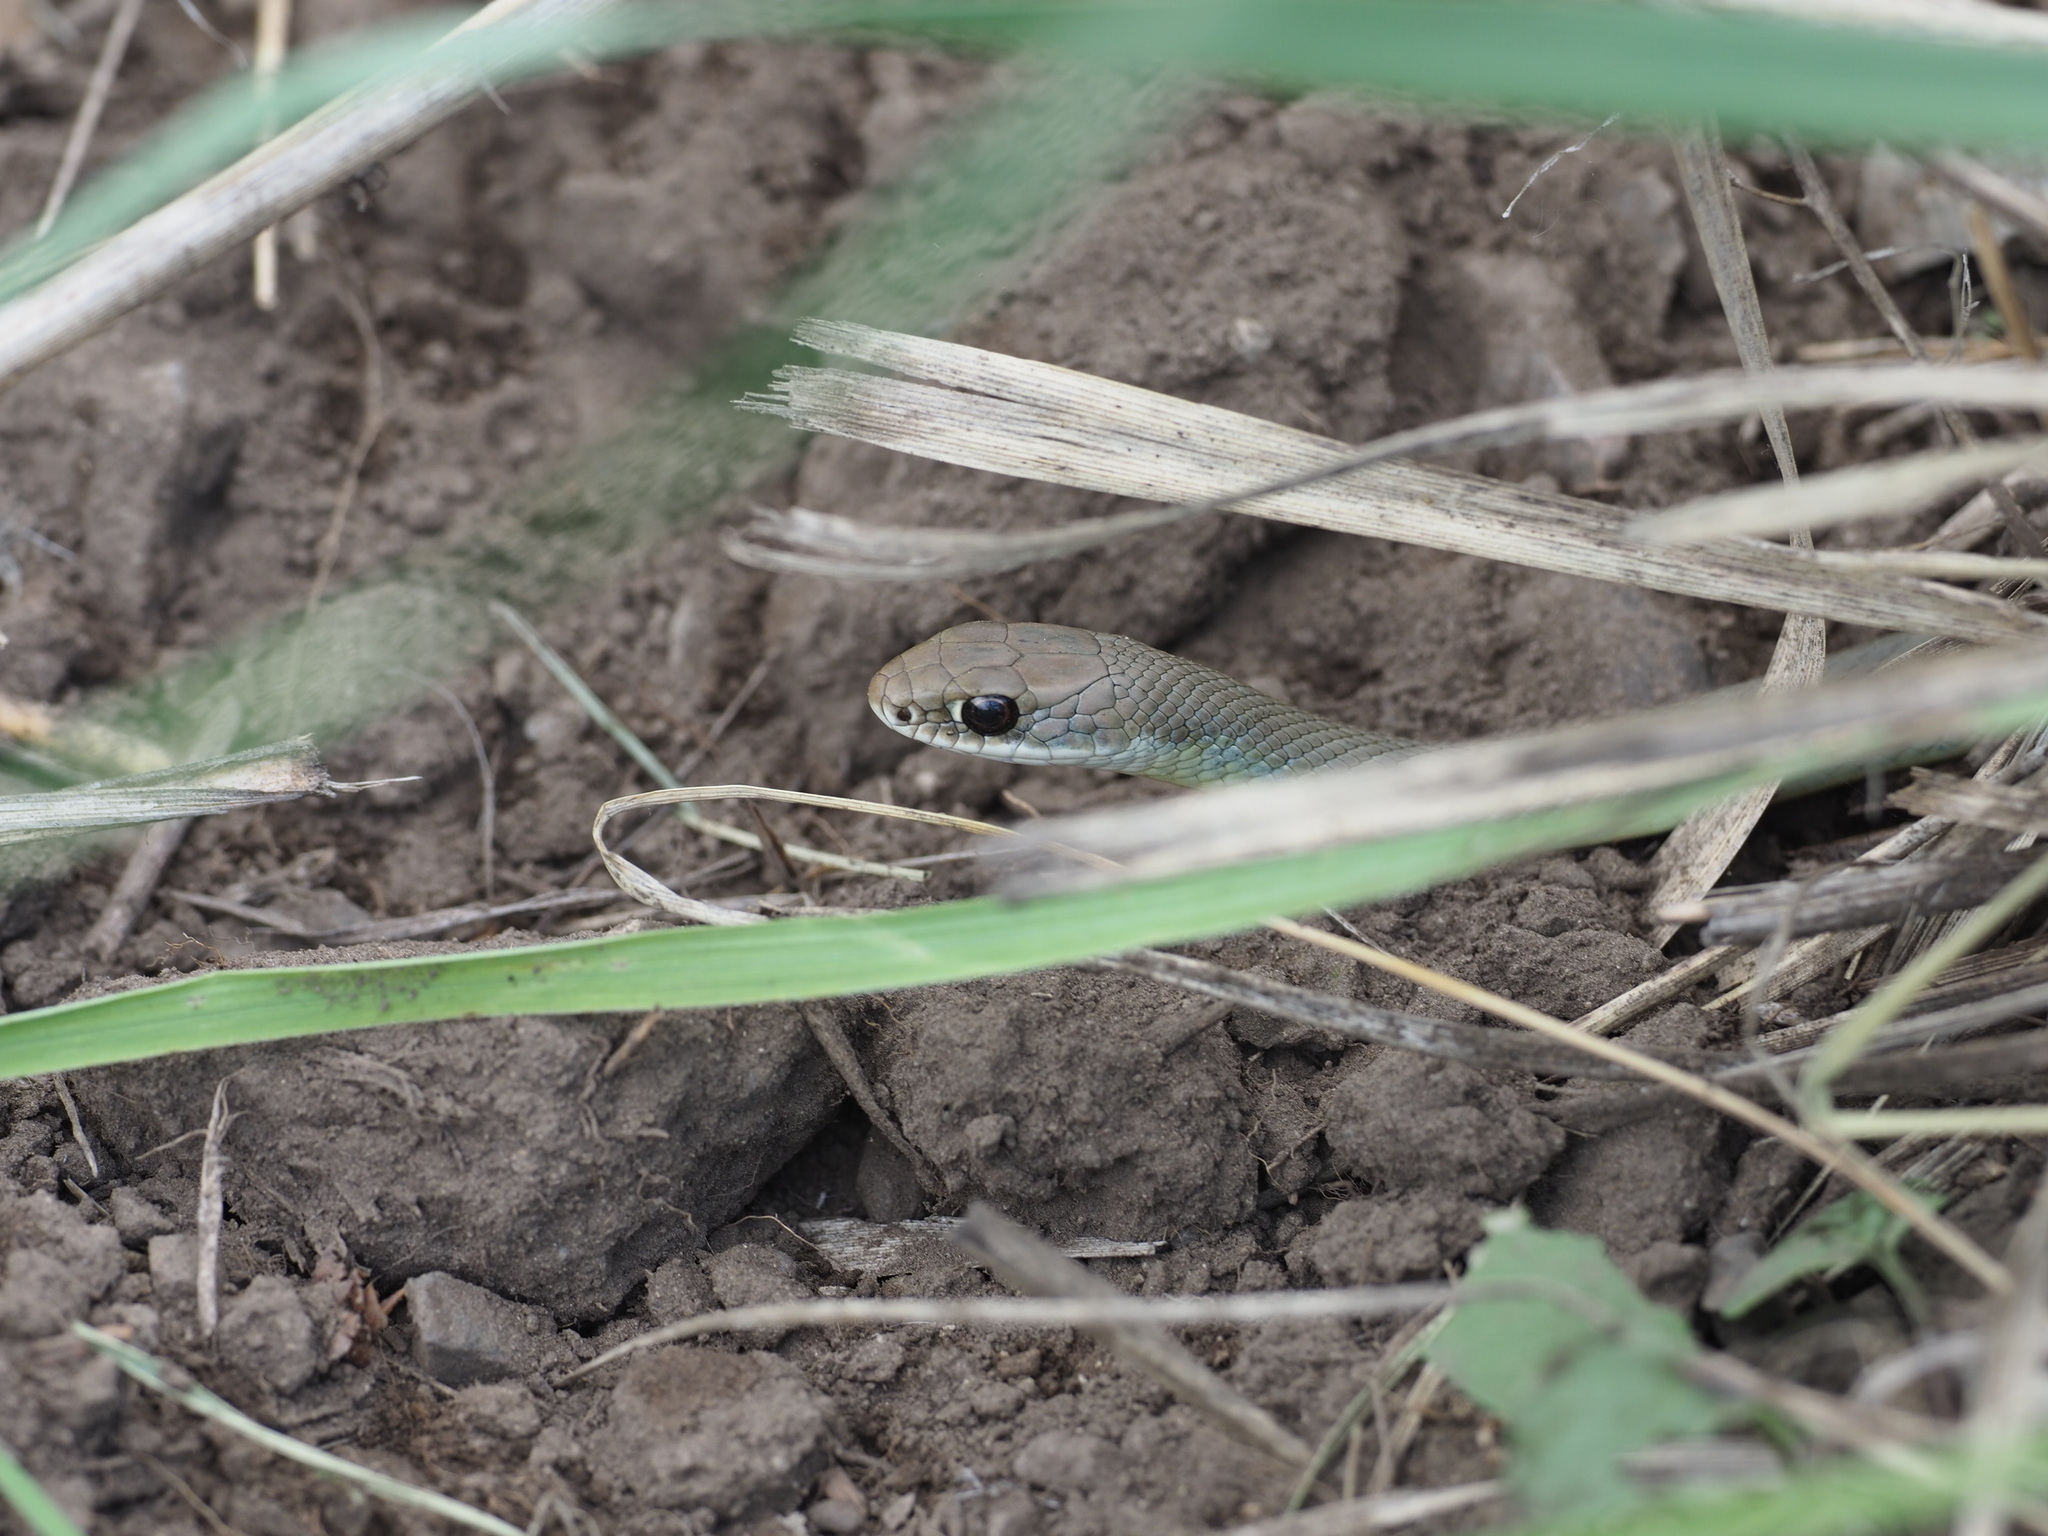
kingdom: Animalia
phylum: Chordata
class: Squamata
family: Colubridae
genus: Coluber
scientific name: Coluber constrictor
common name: Eastern racer
